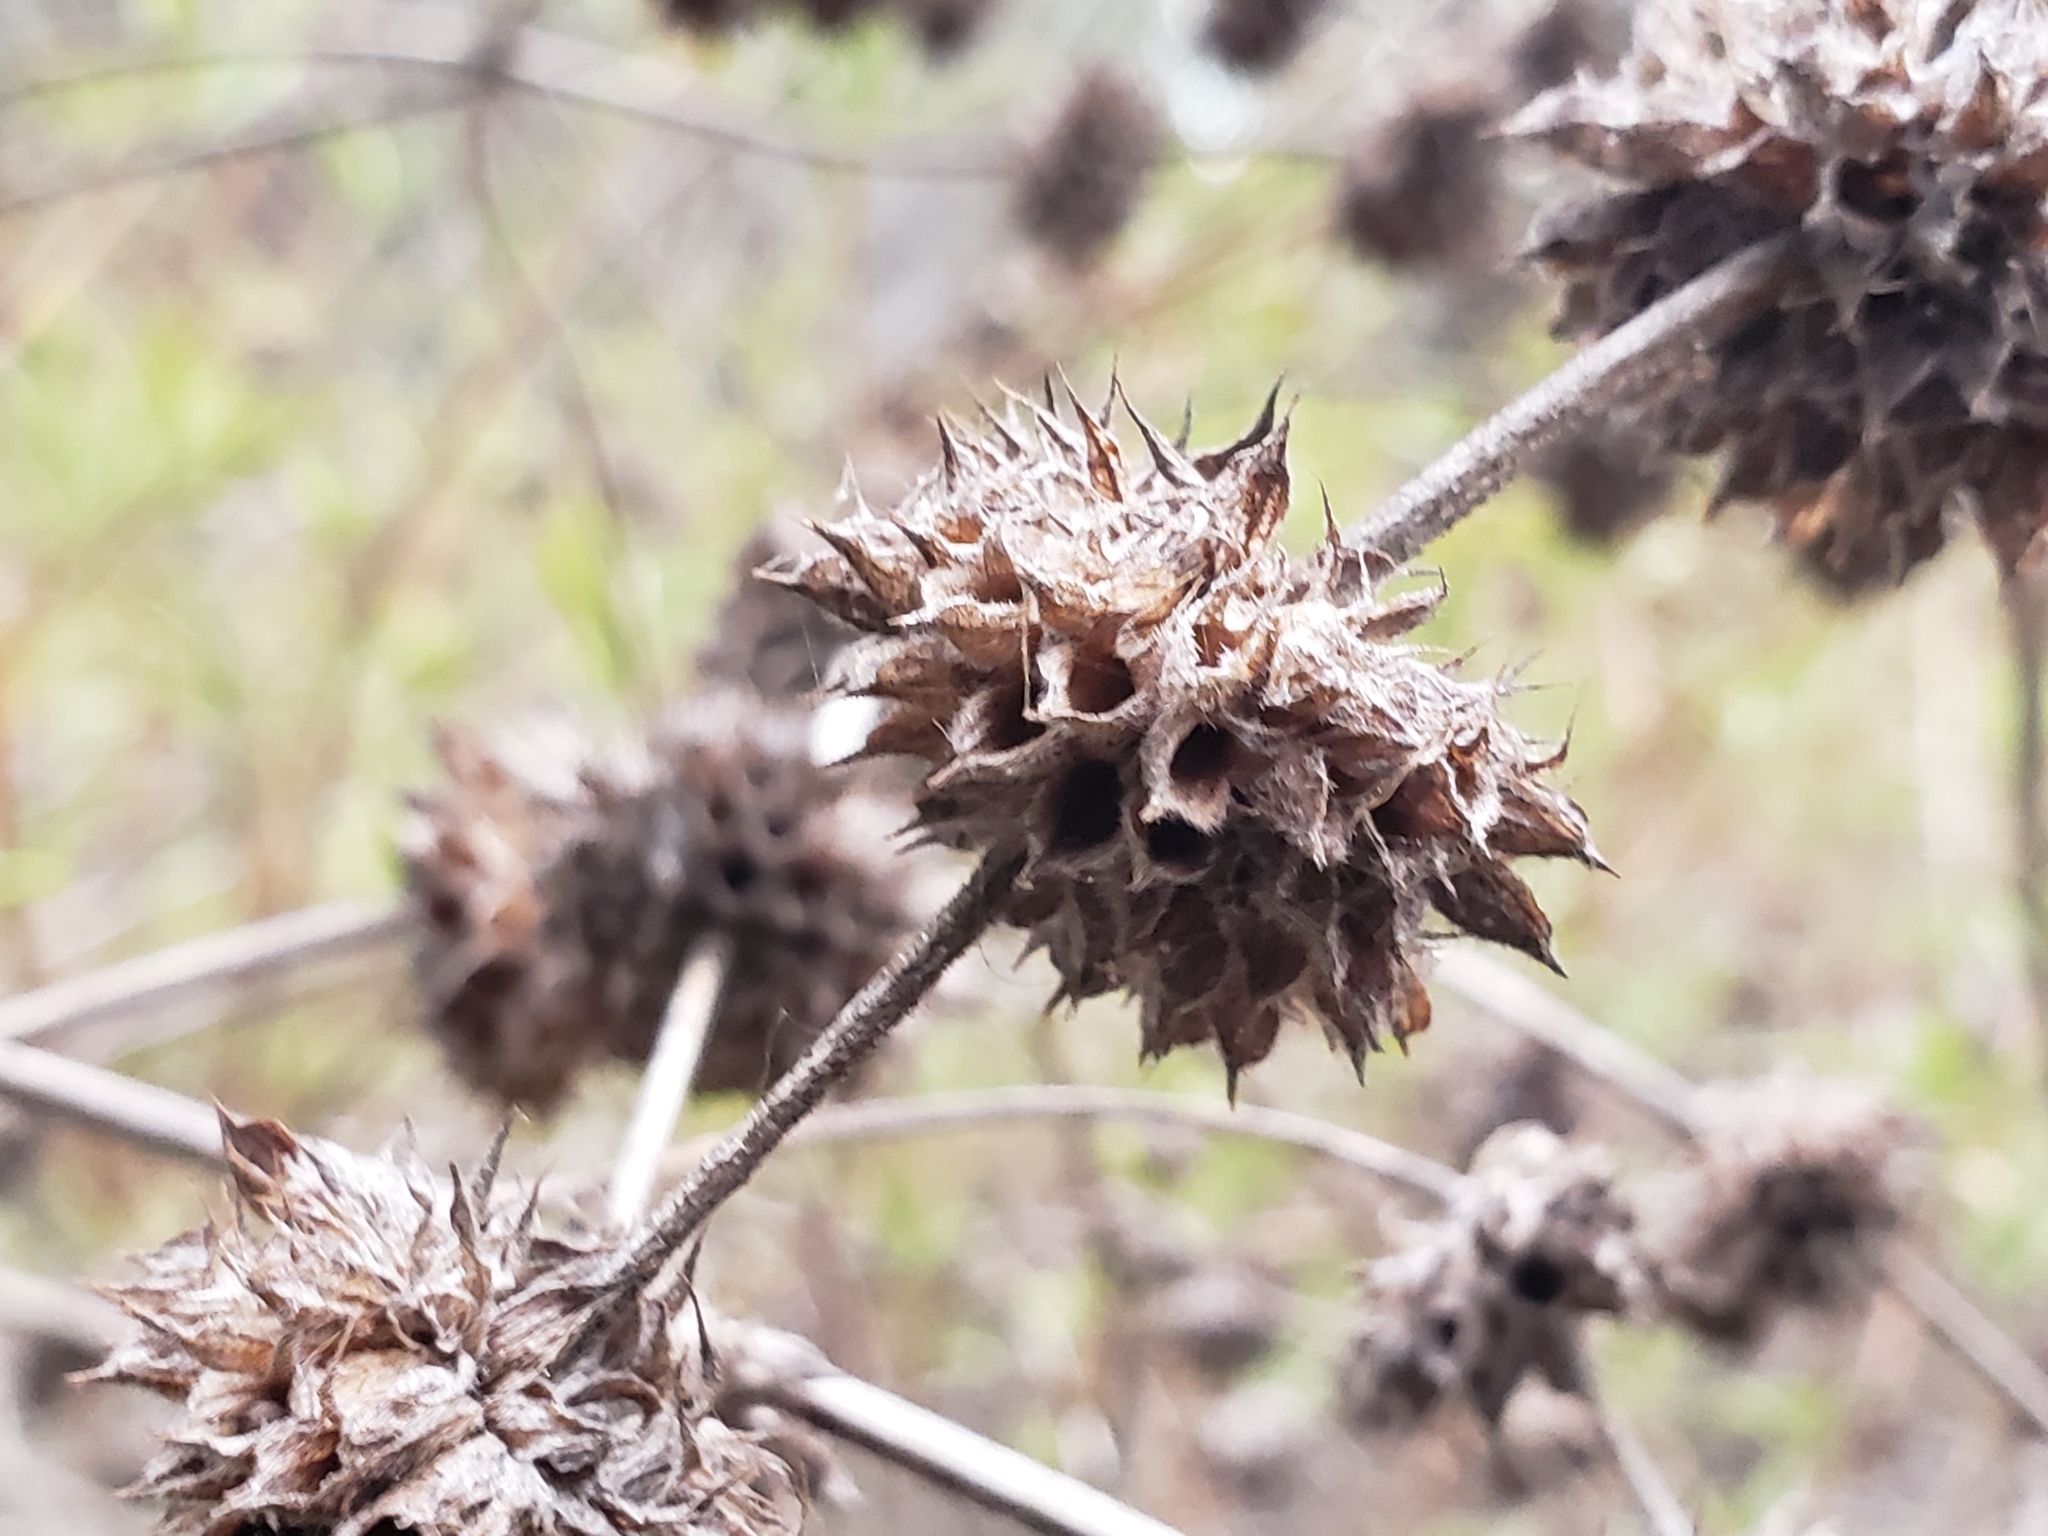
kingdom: Plantae
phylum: Tracheophyta
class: Magnoliopsida
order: Lamiales
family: Lamiaceae
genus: Salvia
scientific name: Salvia mellifera
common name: Black sage
